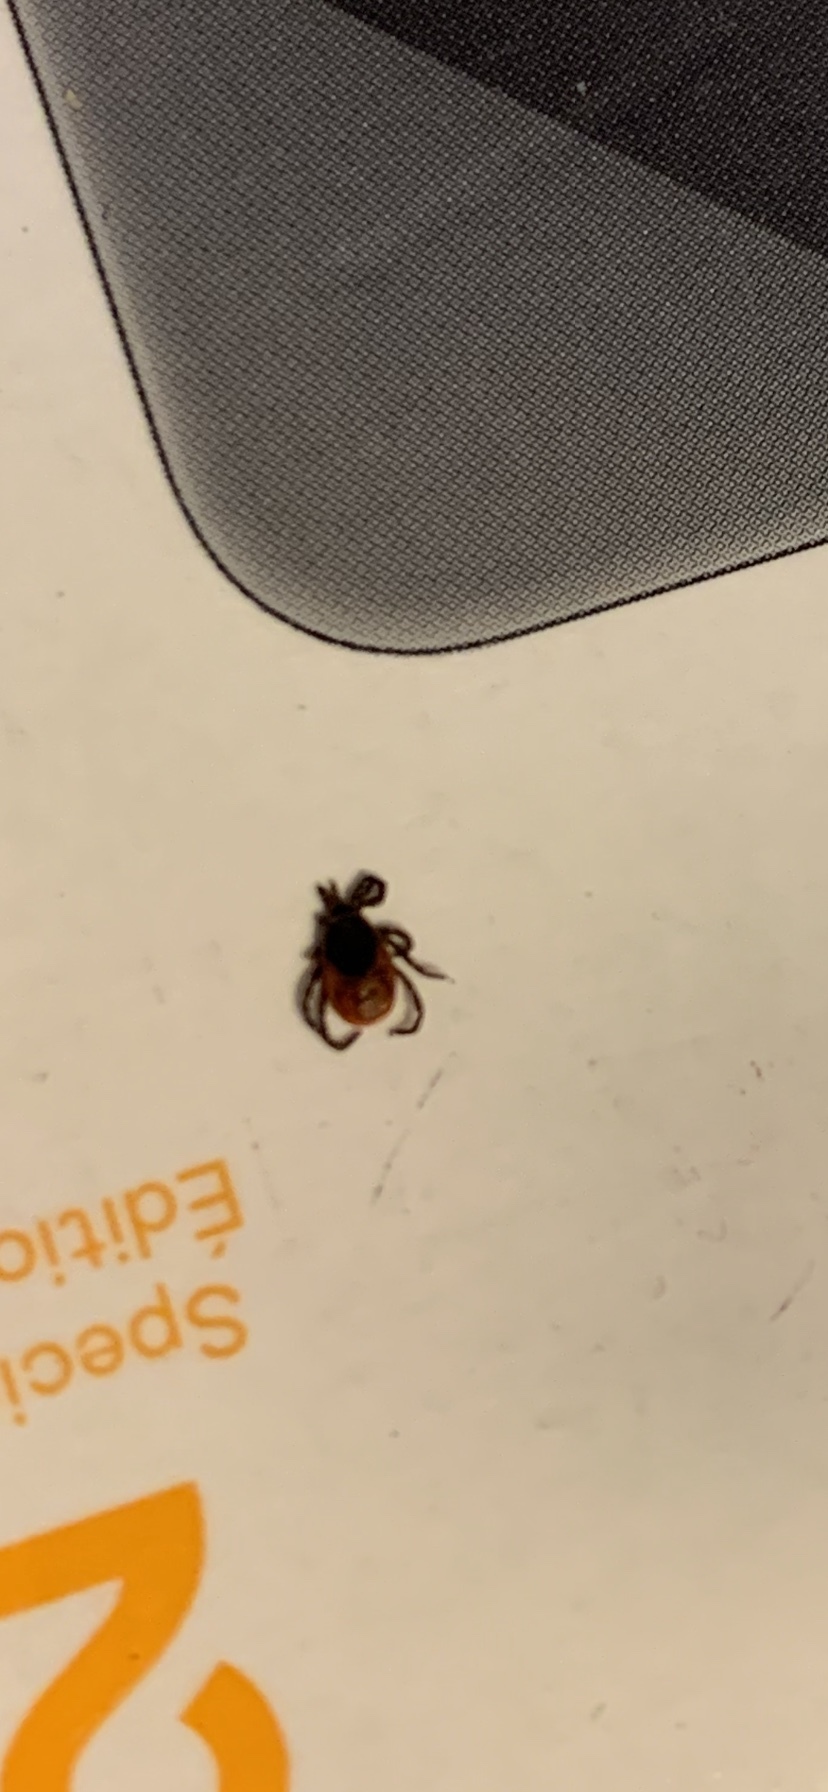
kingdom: Animalia
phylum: Arthropoda
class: Arachnida
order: Ixodida
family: Ixodidae
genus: Ixodes
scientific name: Ixodes scapularis
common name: Black legged tick
